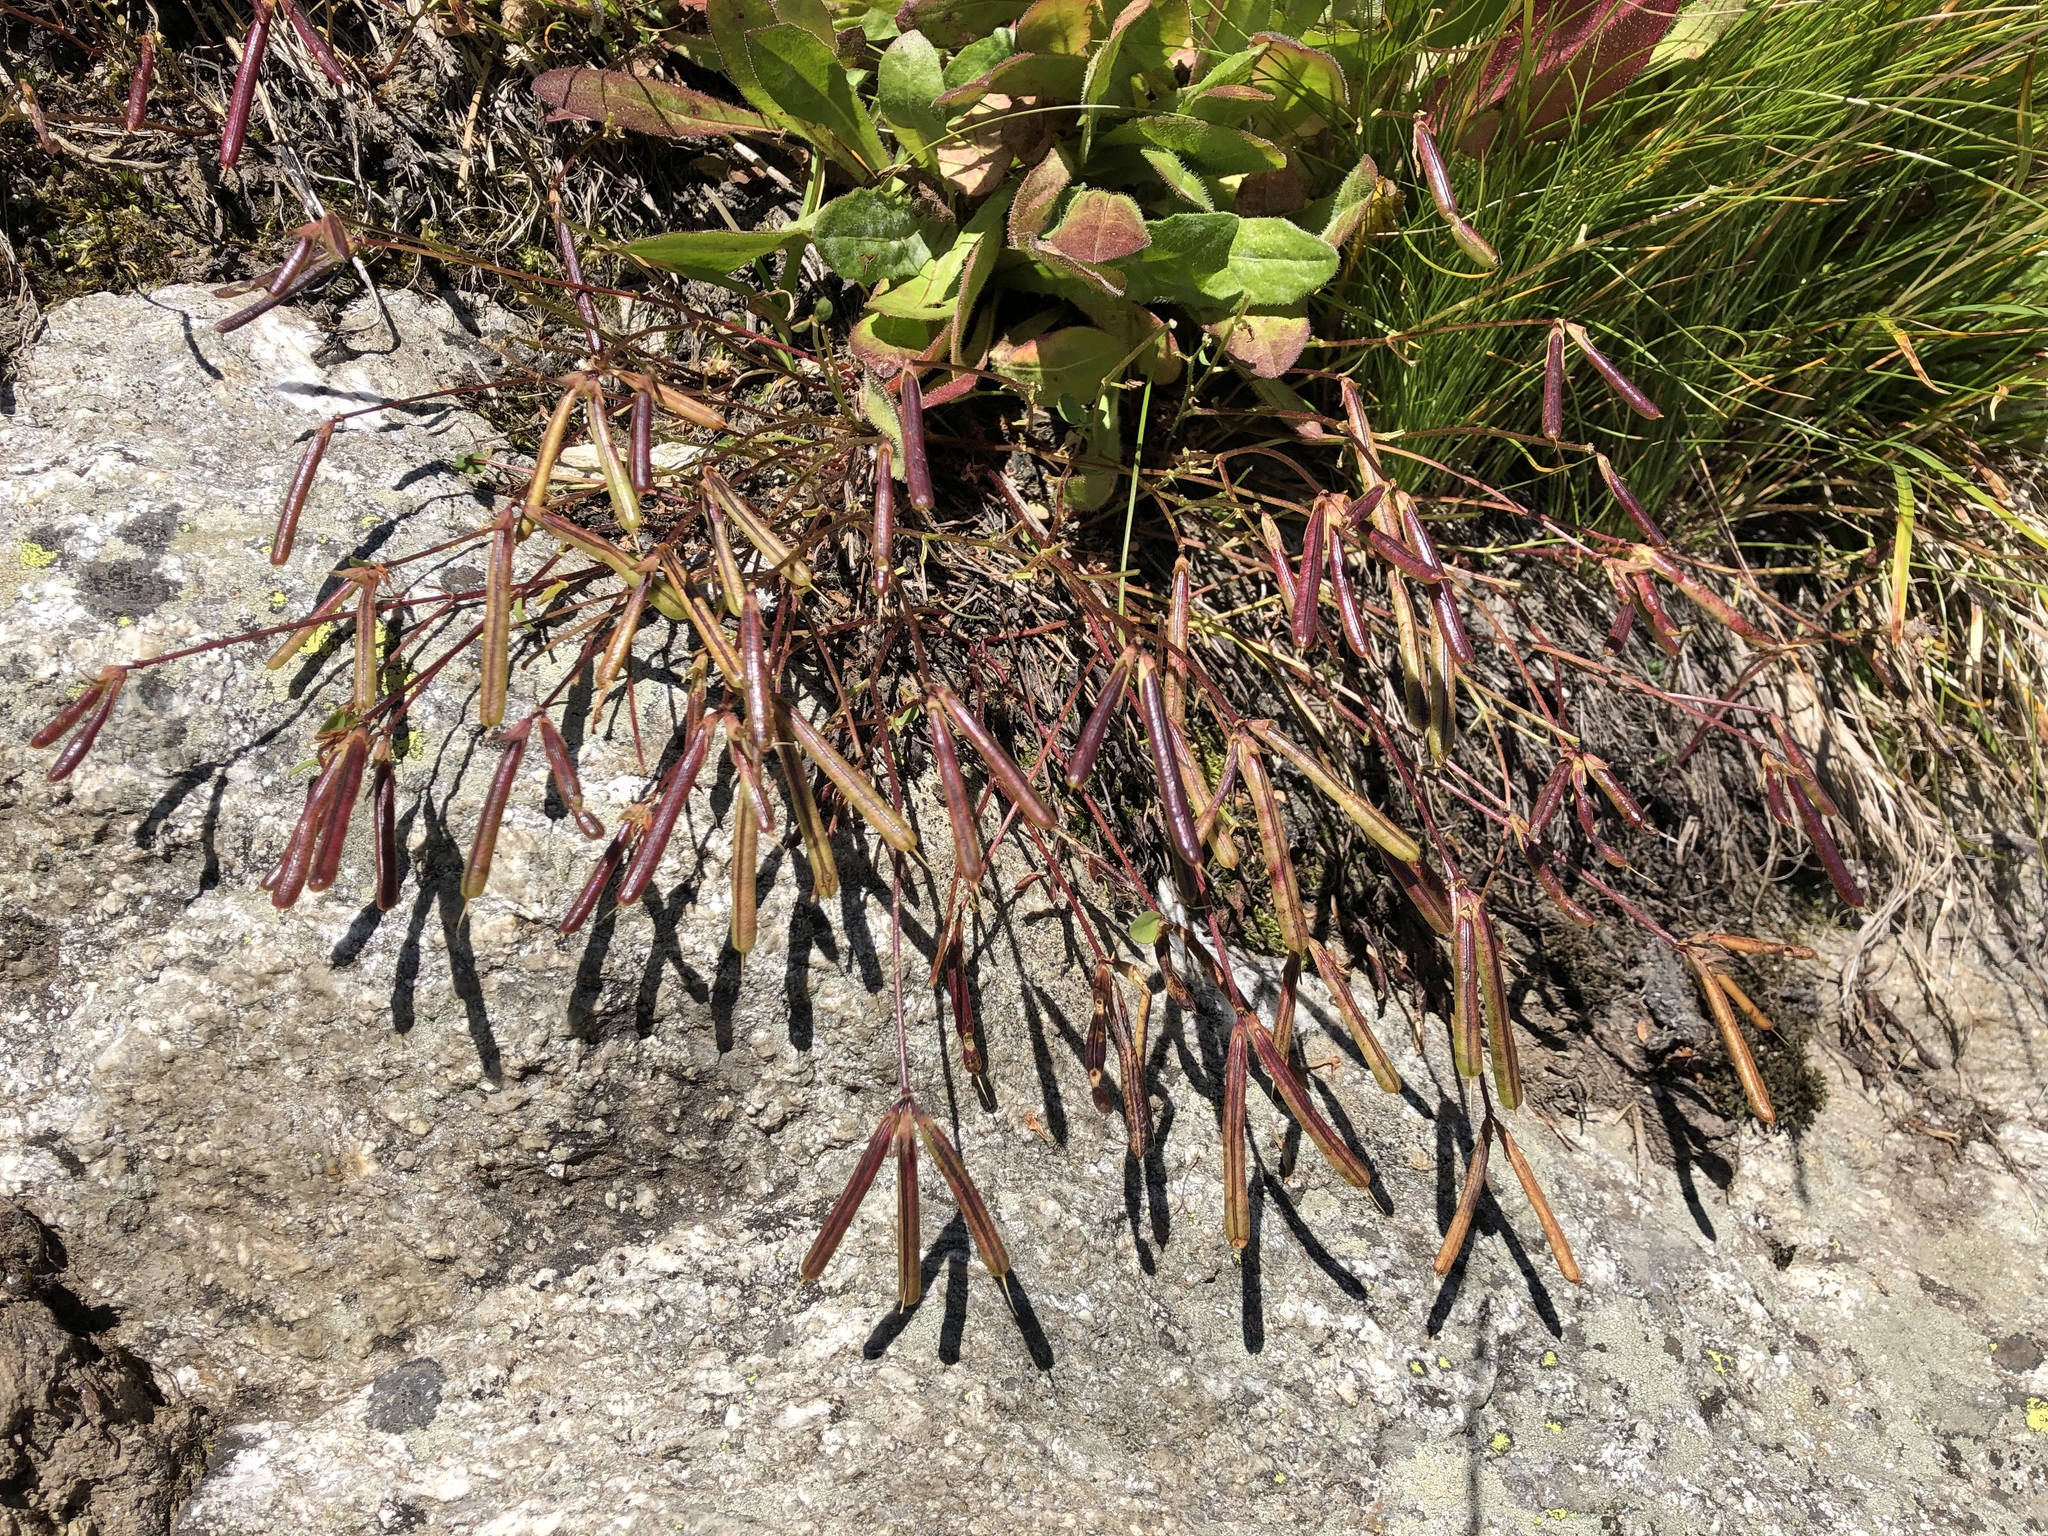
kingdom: Plantae
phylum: Tracheophyta
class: Magnoliopsida
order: Fabales
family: Fabaceae
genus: Lotus
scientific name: Lotus alpinus
